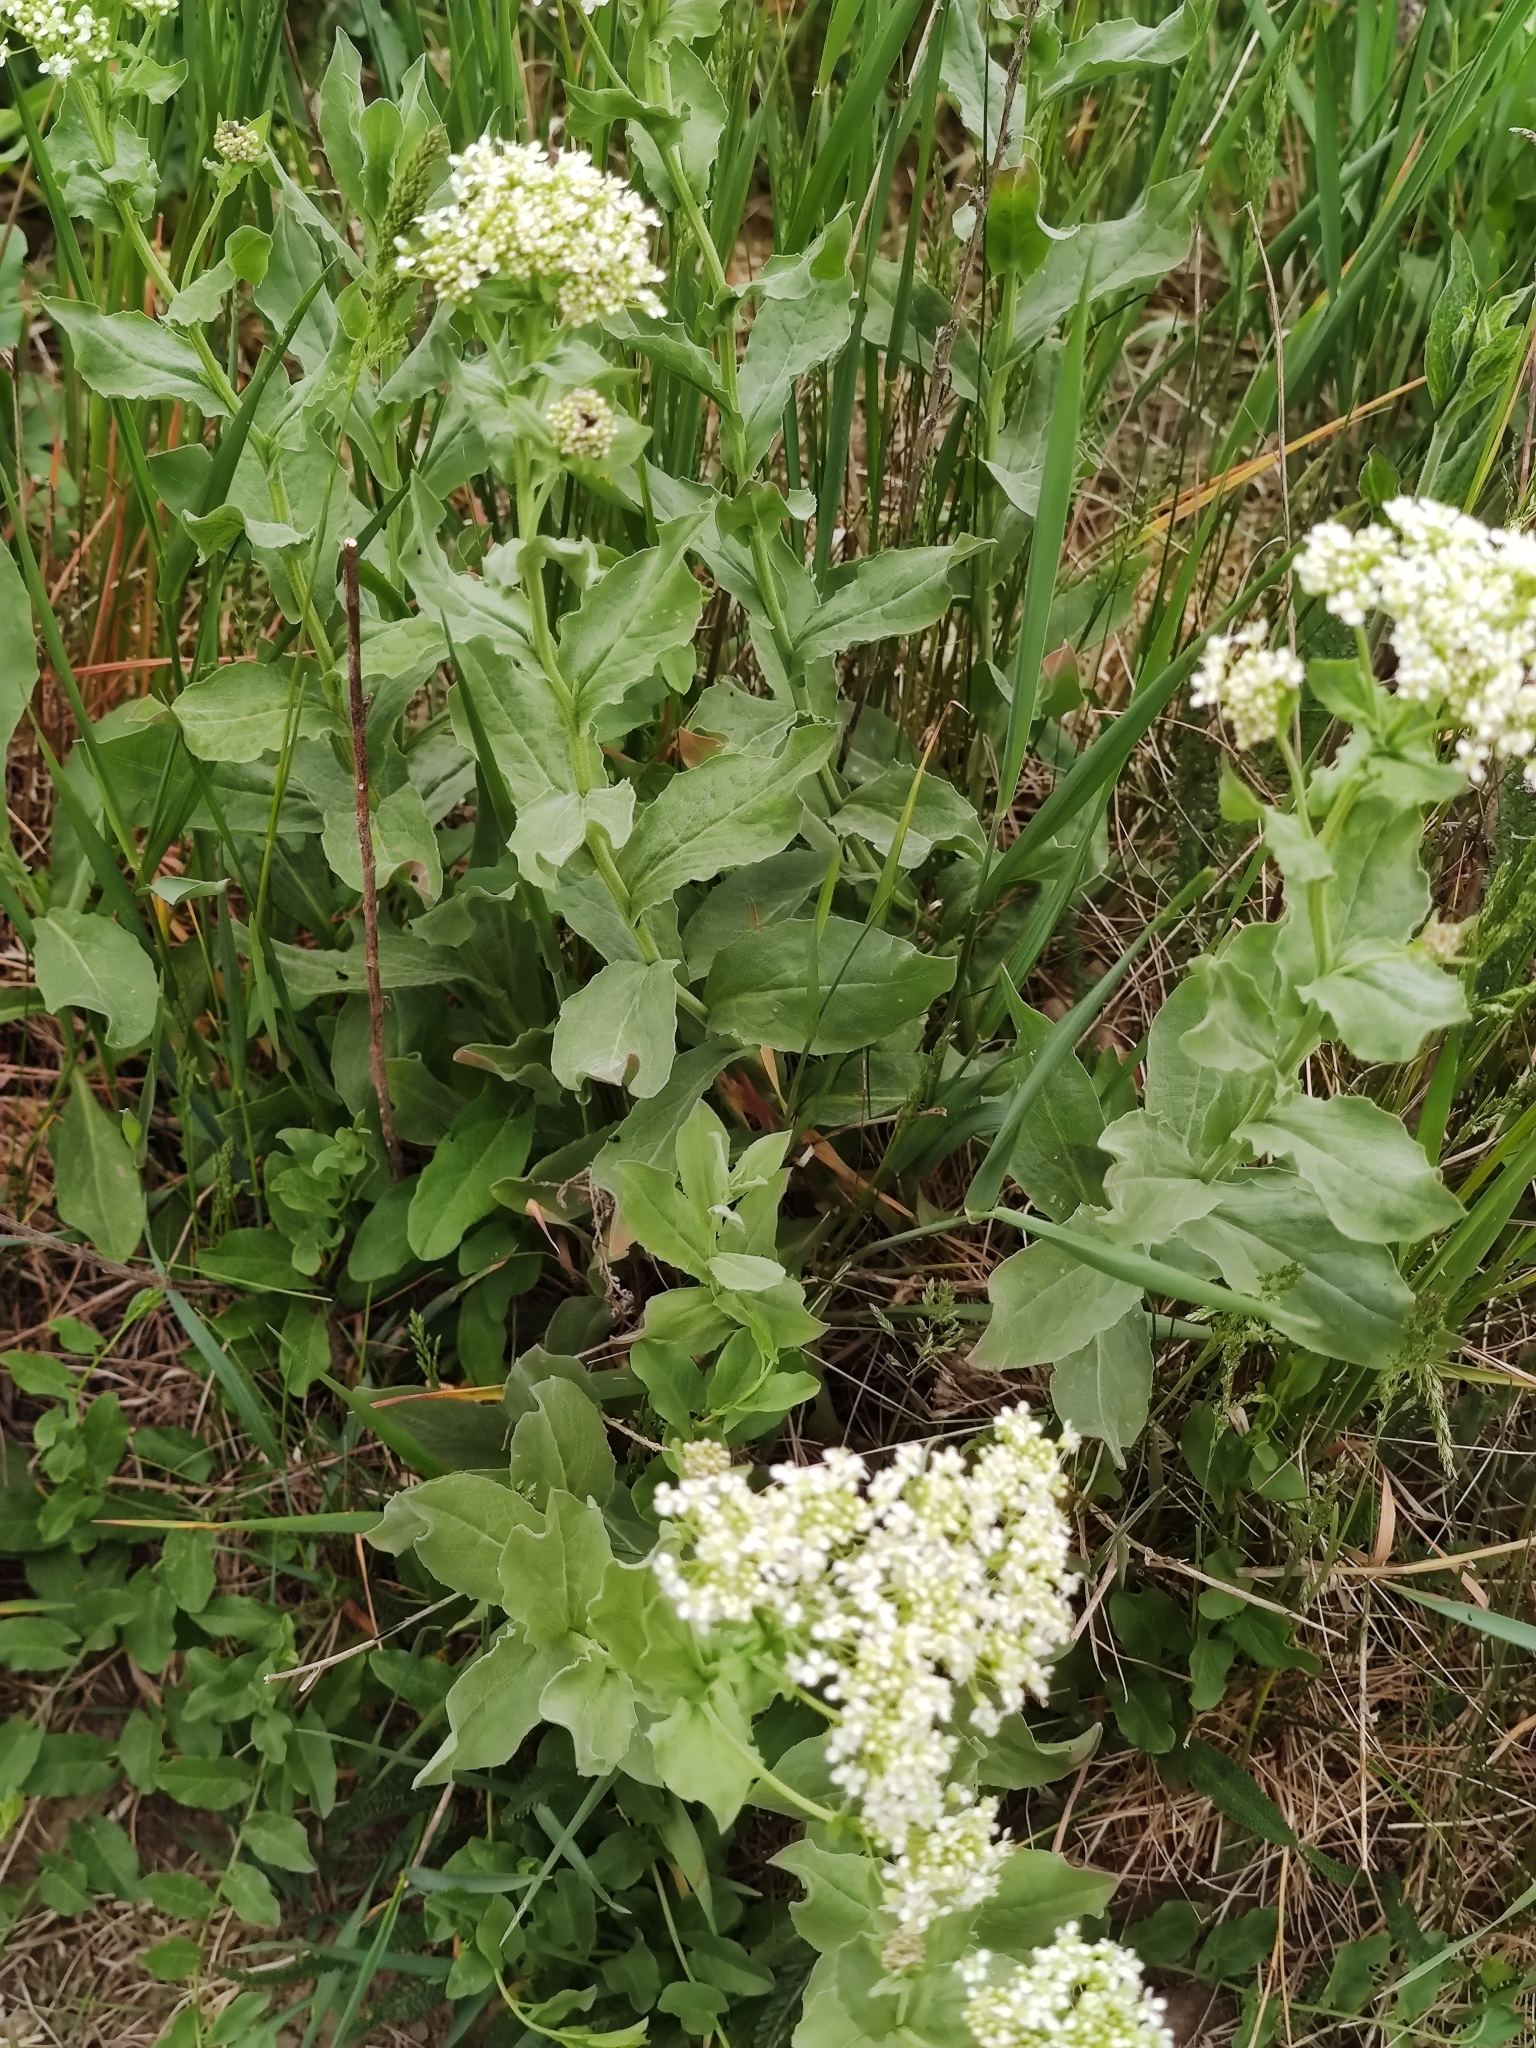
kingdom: Plantae
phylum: Tracheophyta
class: Magnoliopsida
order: Brassicales
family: Brassicaceae
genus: Lepidium
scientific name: Lepidium draba
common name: Hoary cress
